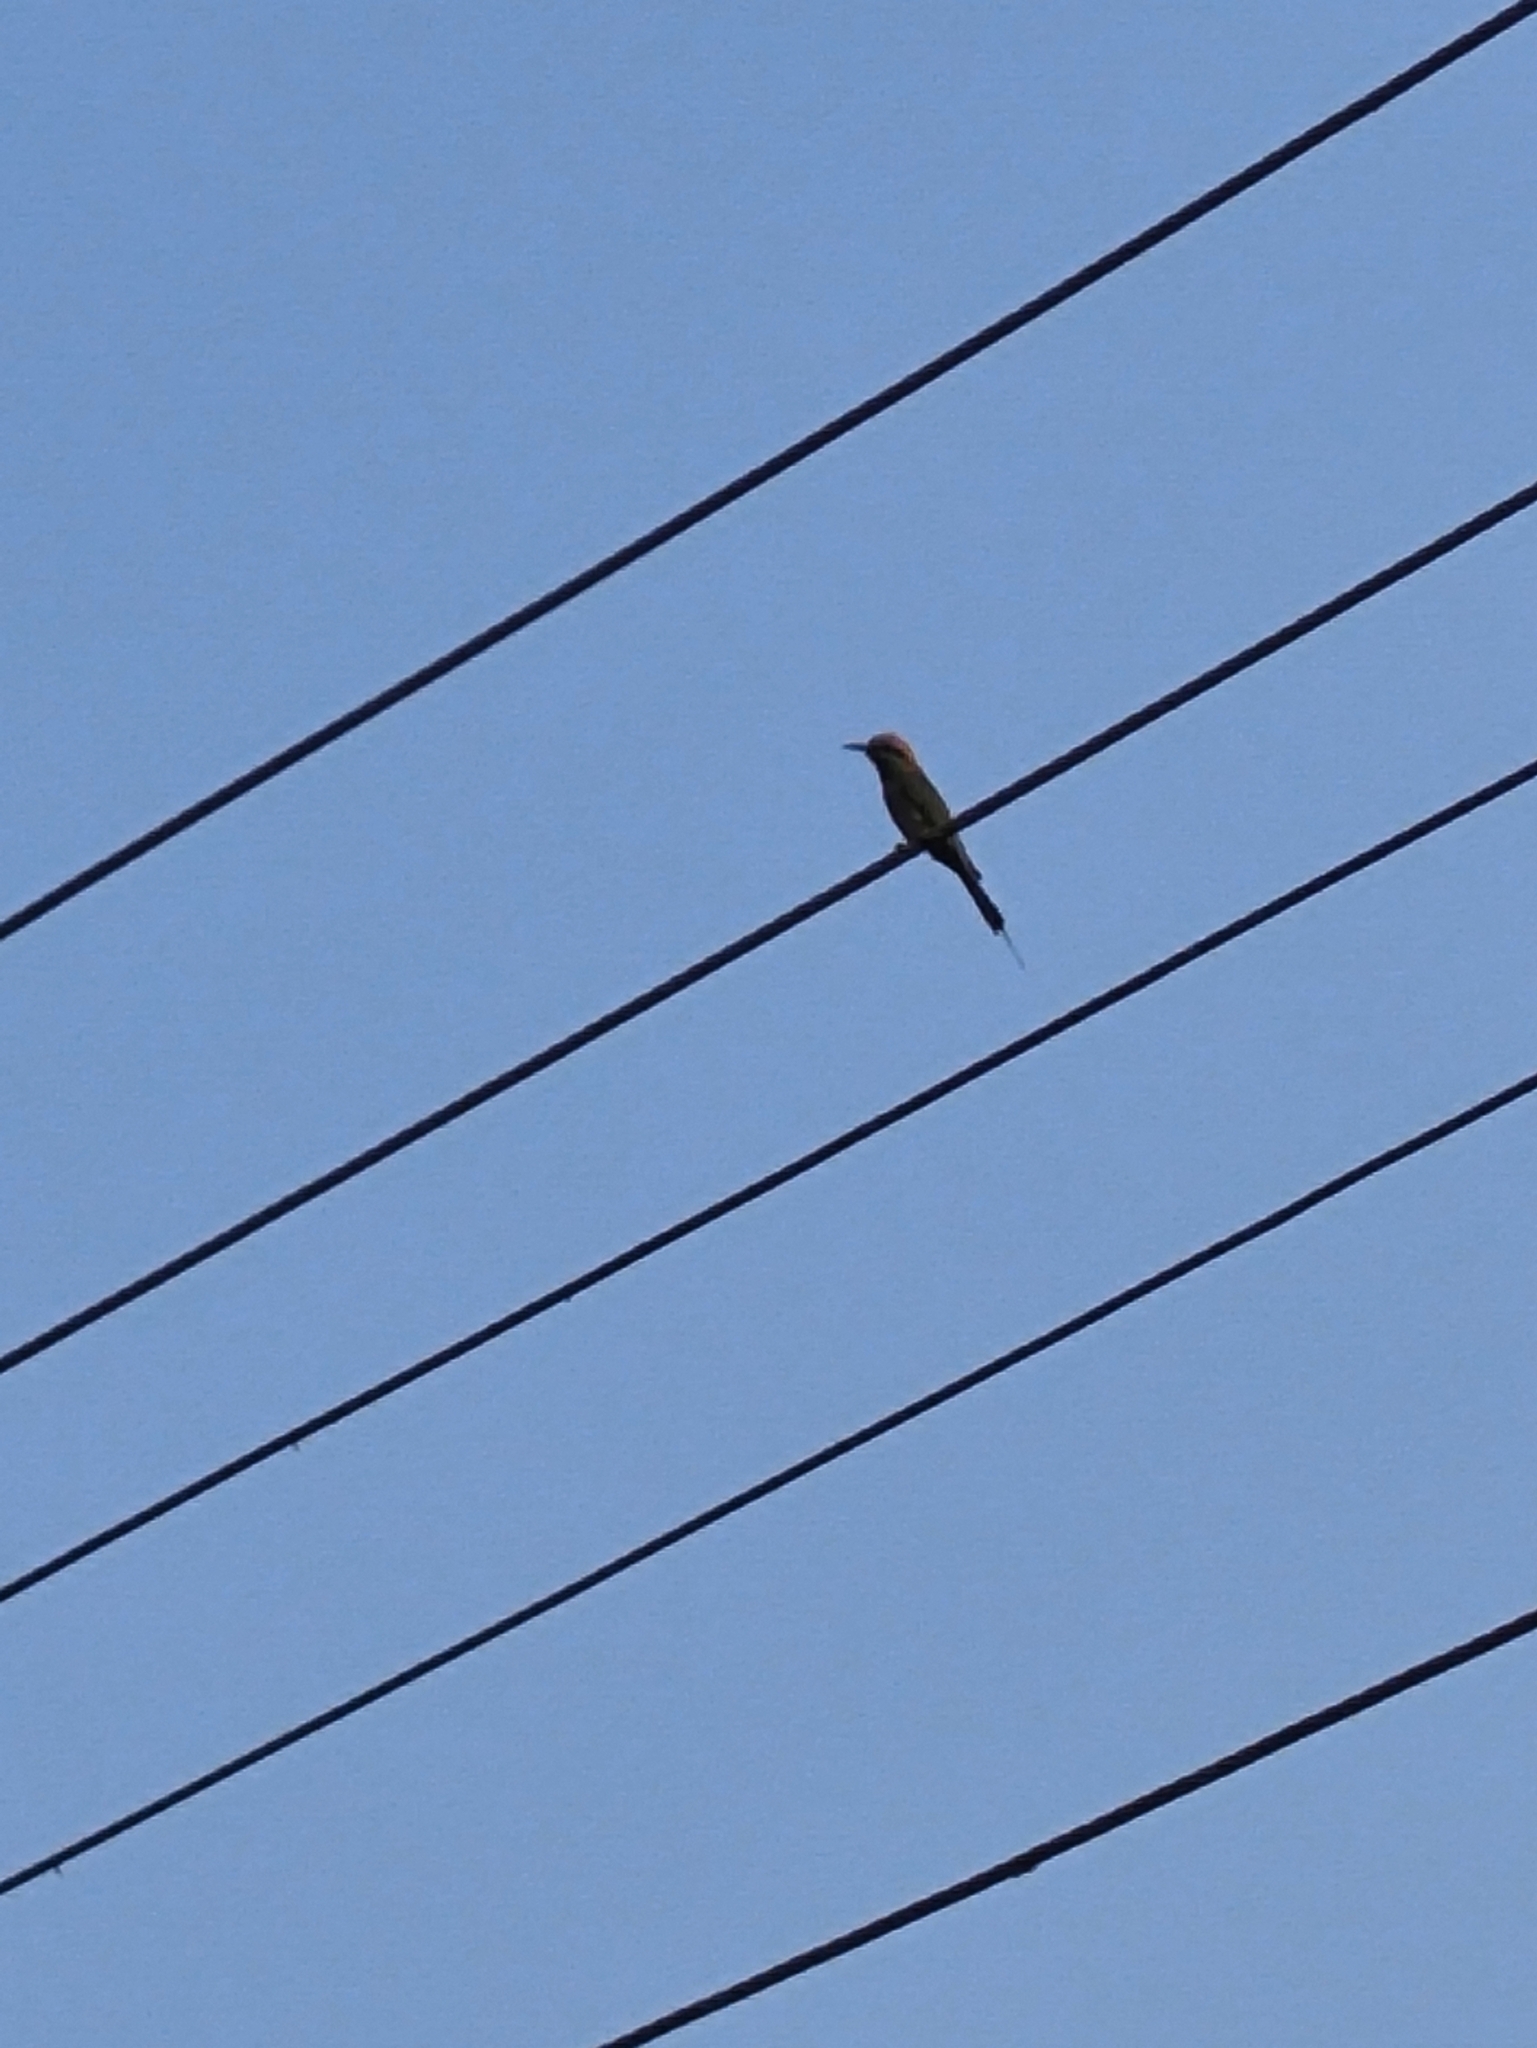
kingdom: Animalia
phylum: Chordata
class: Aves
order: Coraciiformes
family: Meropidae
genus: Merops
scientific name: Merops orientalis
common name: Green bee-eater
